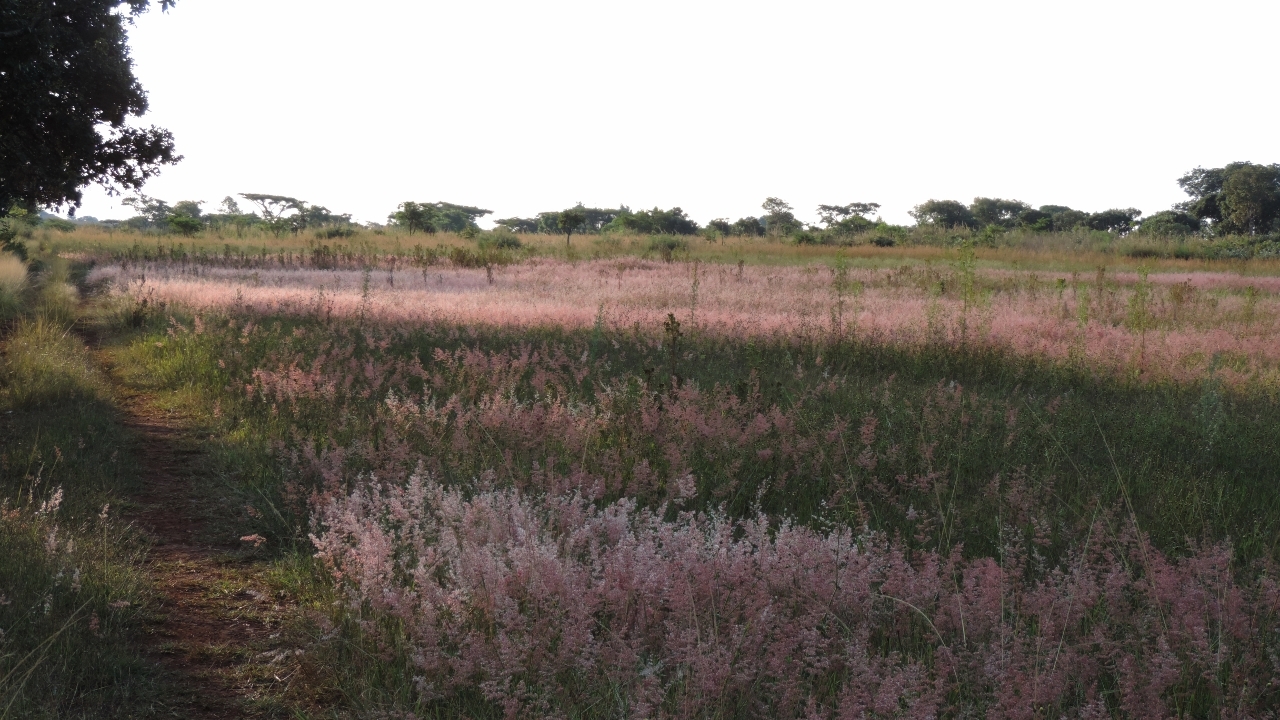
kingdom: Plantae
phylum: Tracheophyta
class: Liliopsida
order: Poales
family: Poaceae
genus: Melinis
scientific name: Melinis repens
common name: Rose natal grass
